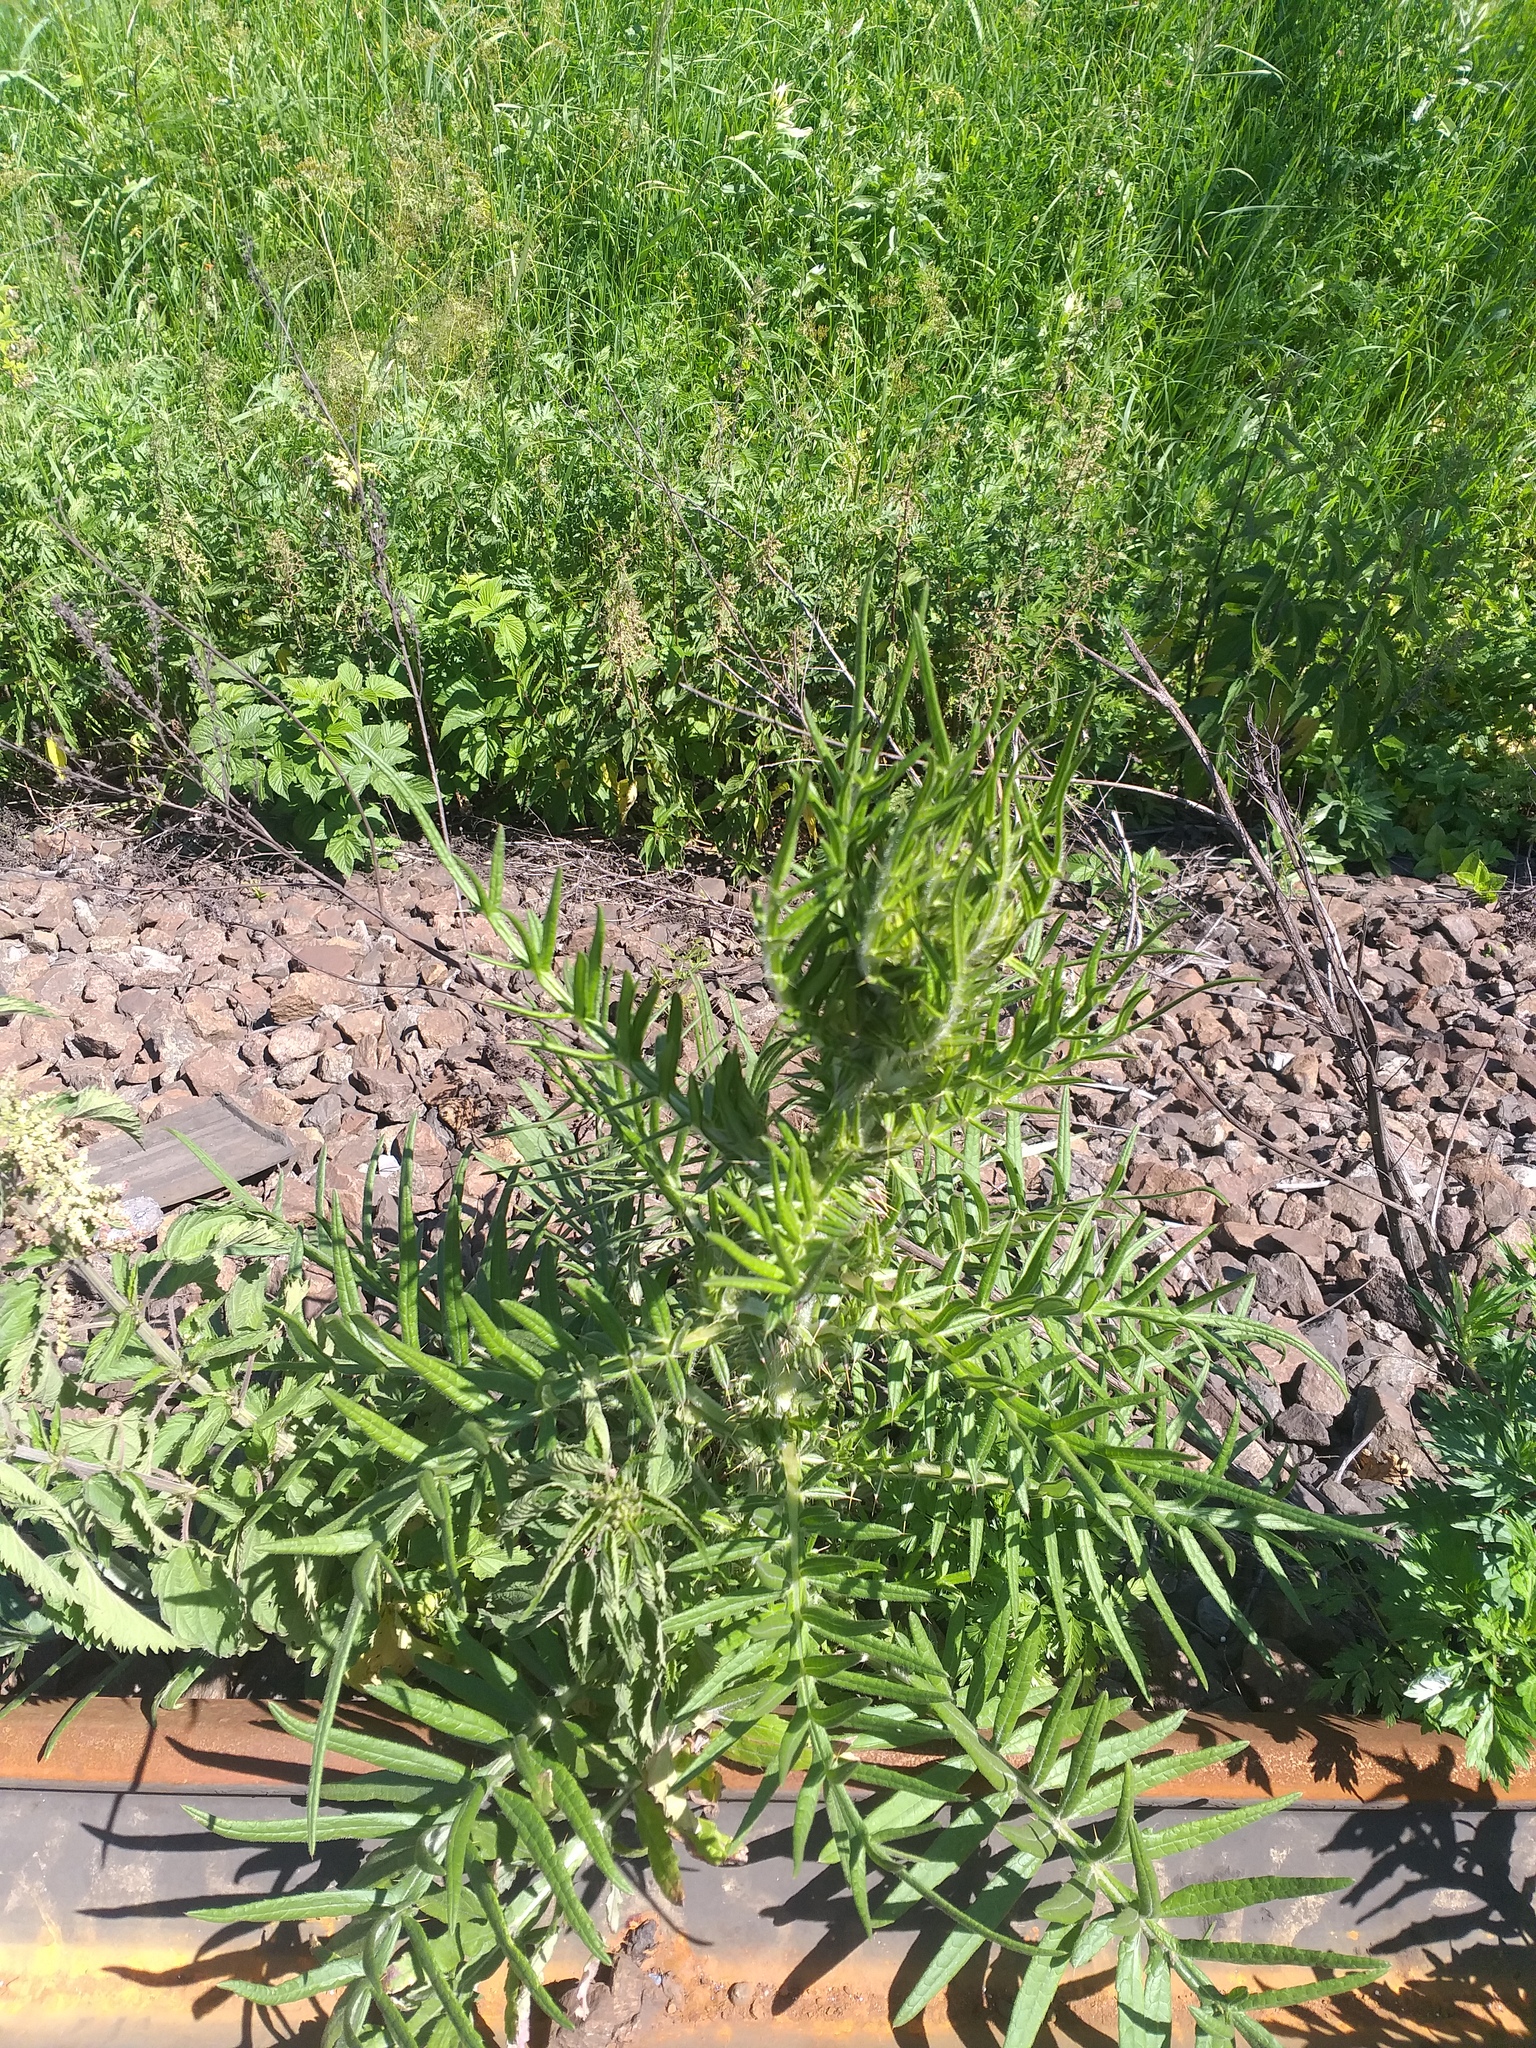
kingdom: Plantae
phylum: Tracheophyta
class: Magnoliopsida
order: Asterales
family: Asteraceae
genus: Lophiolepis
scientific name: Lophiolepis decussata
